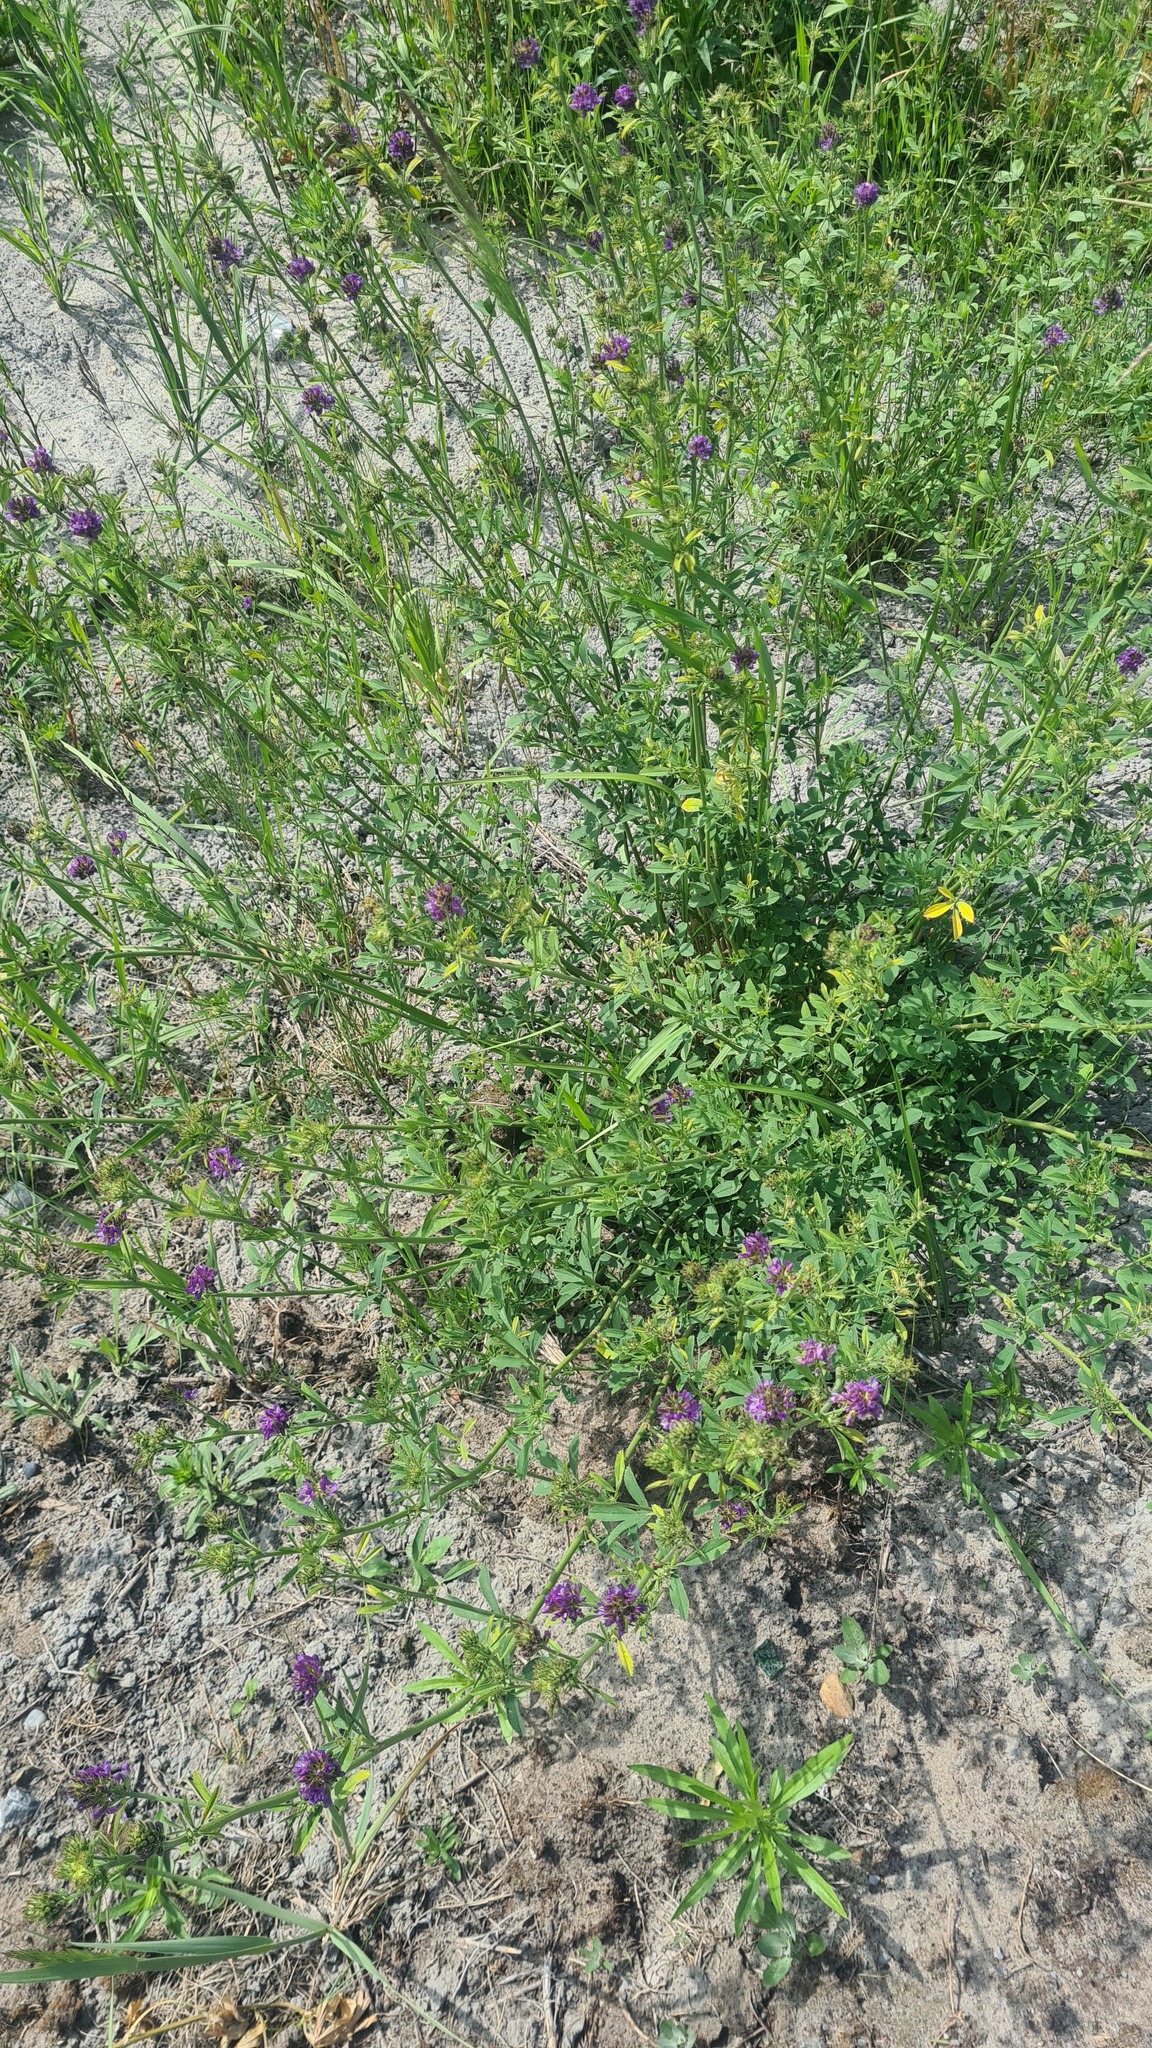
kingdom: Plantae
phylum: Tracheophyta
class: Magnoliopsida
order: Fabales
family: Fabaceae
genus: Medicago
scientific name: Medicago varia
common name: Sand lucerne
